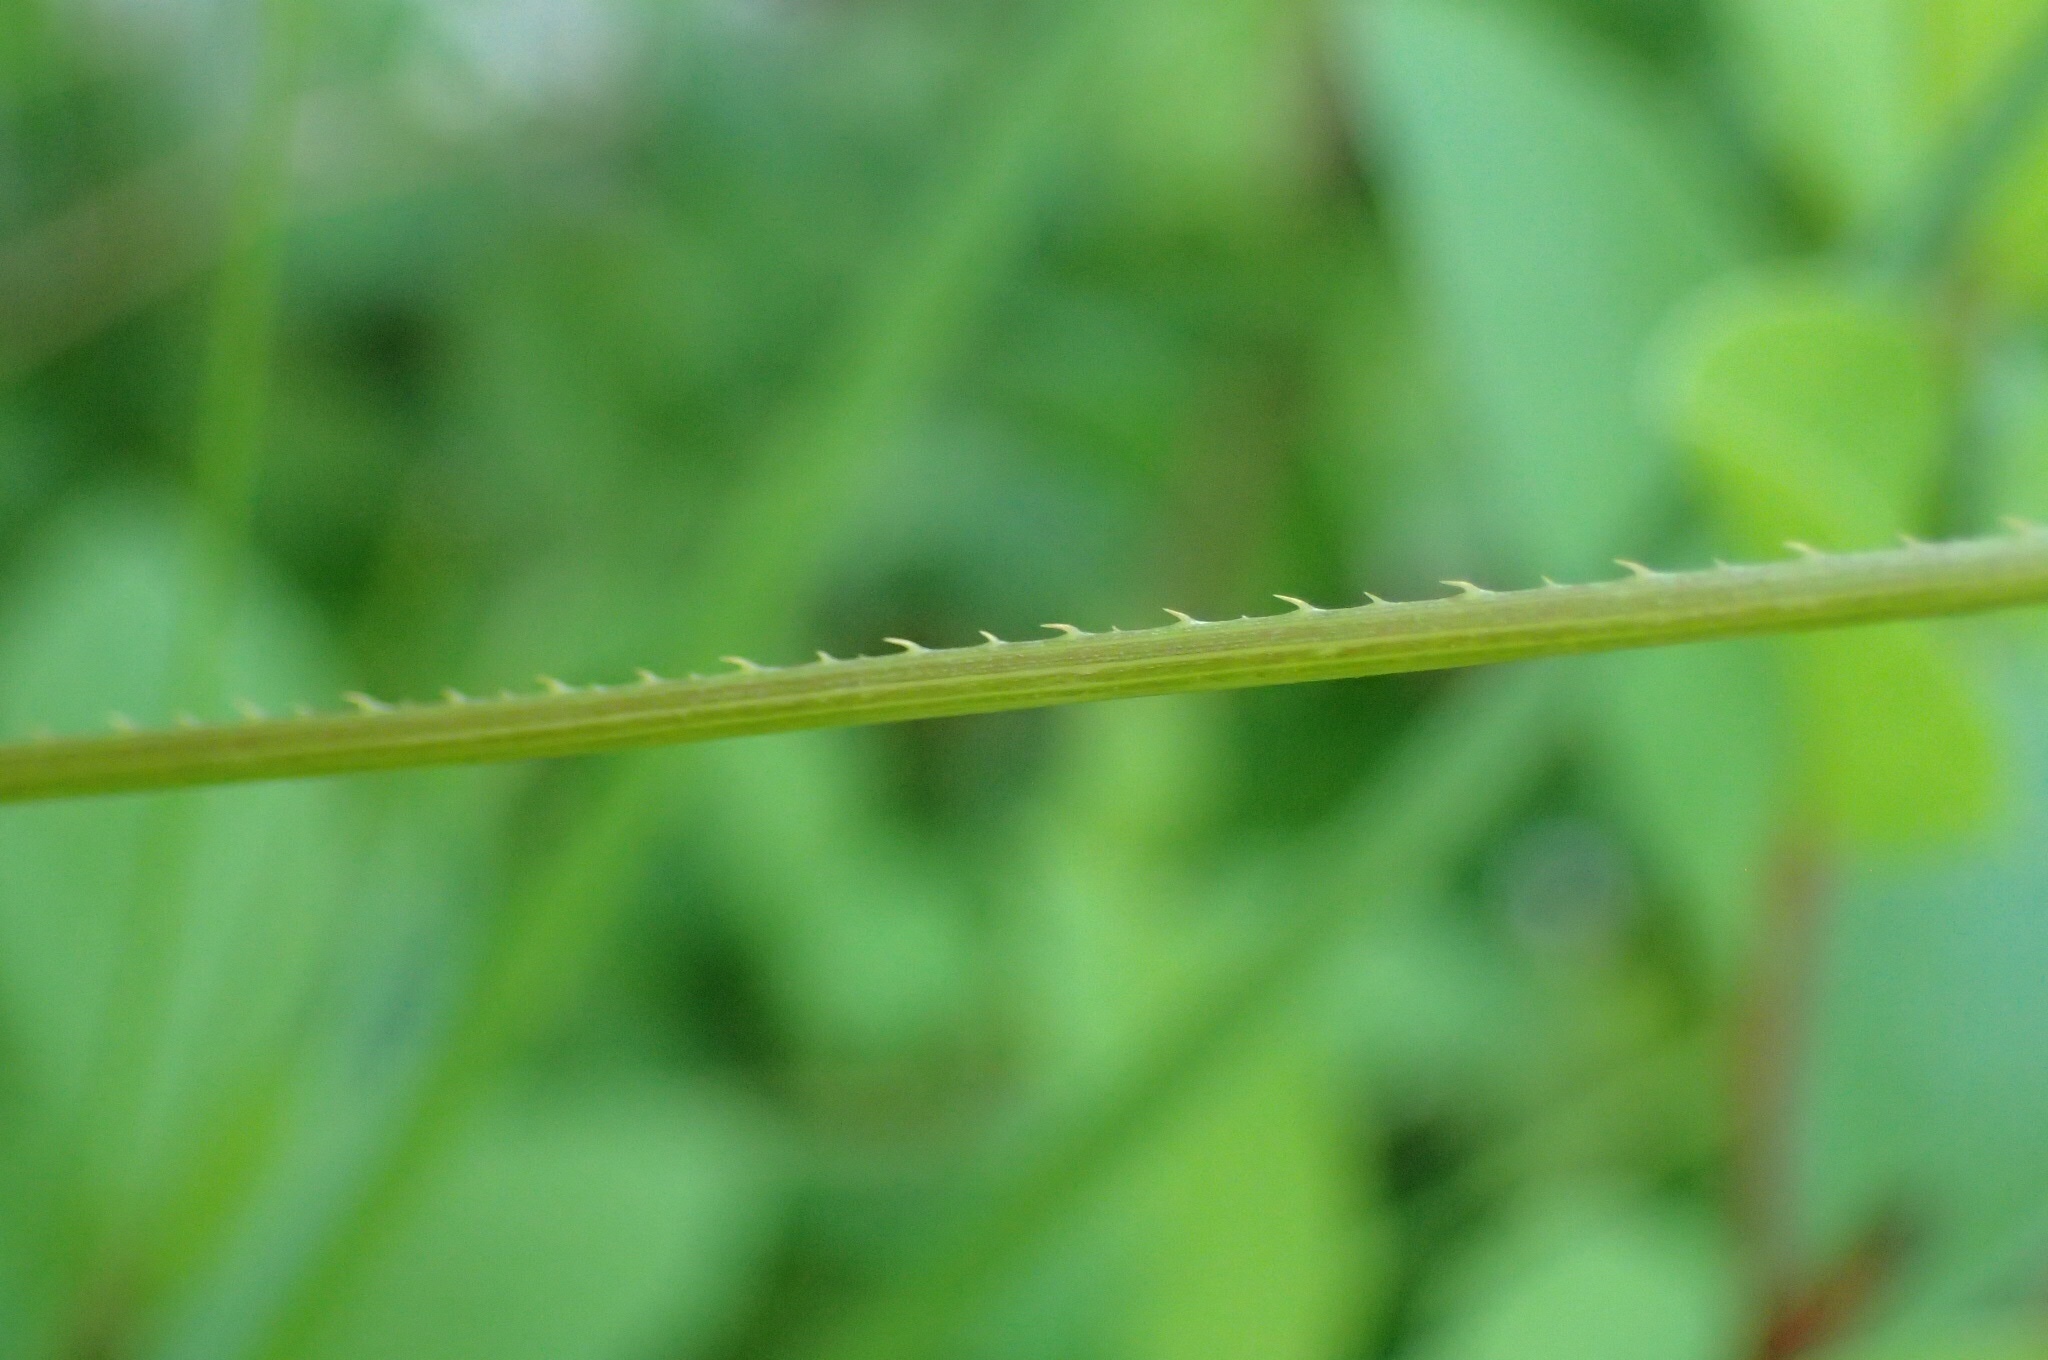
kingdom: Plantae
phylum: Tracheophyta
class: Magnoliopsida
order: Caryophyllales
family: Polygonaceae
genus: Persicaria
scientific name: Persicaria sagittata
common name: American tearthumb
